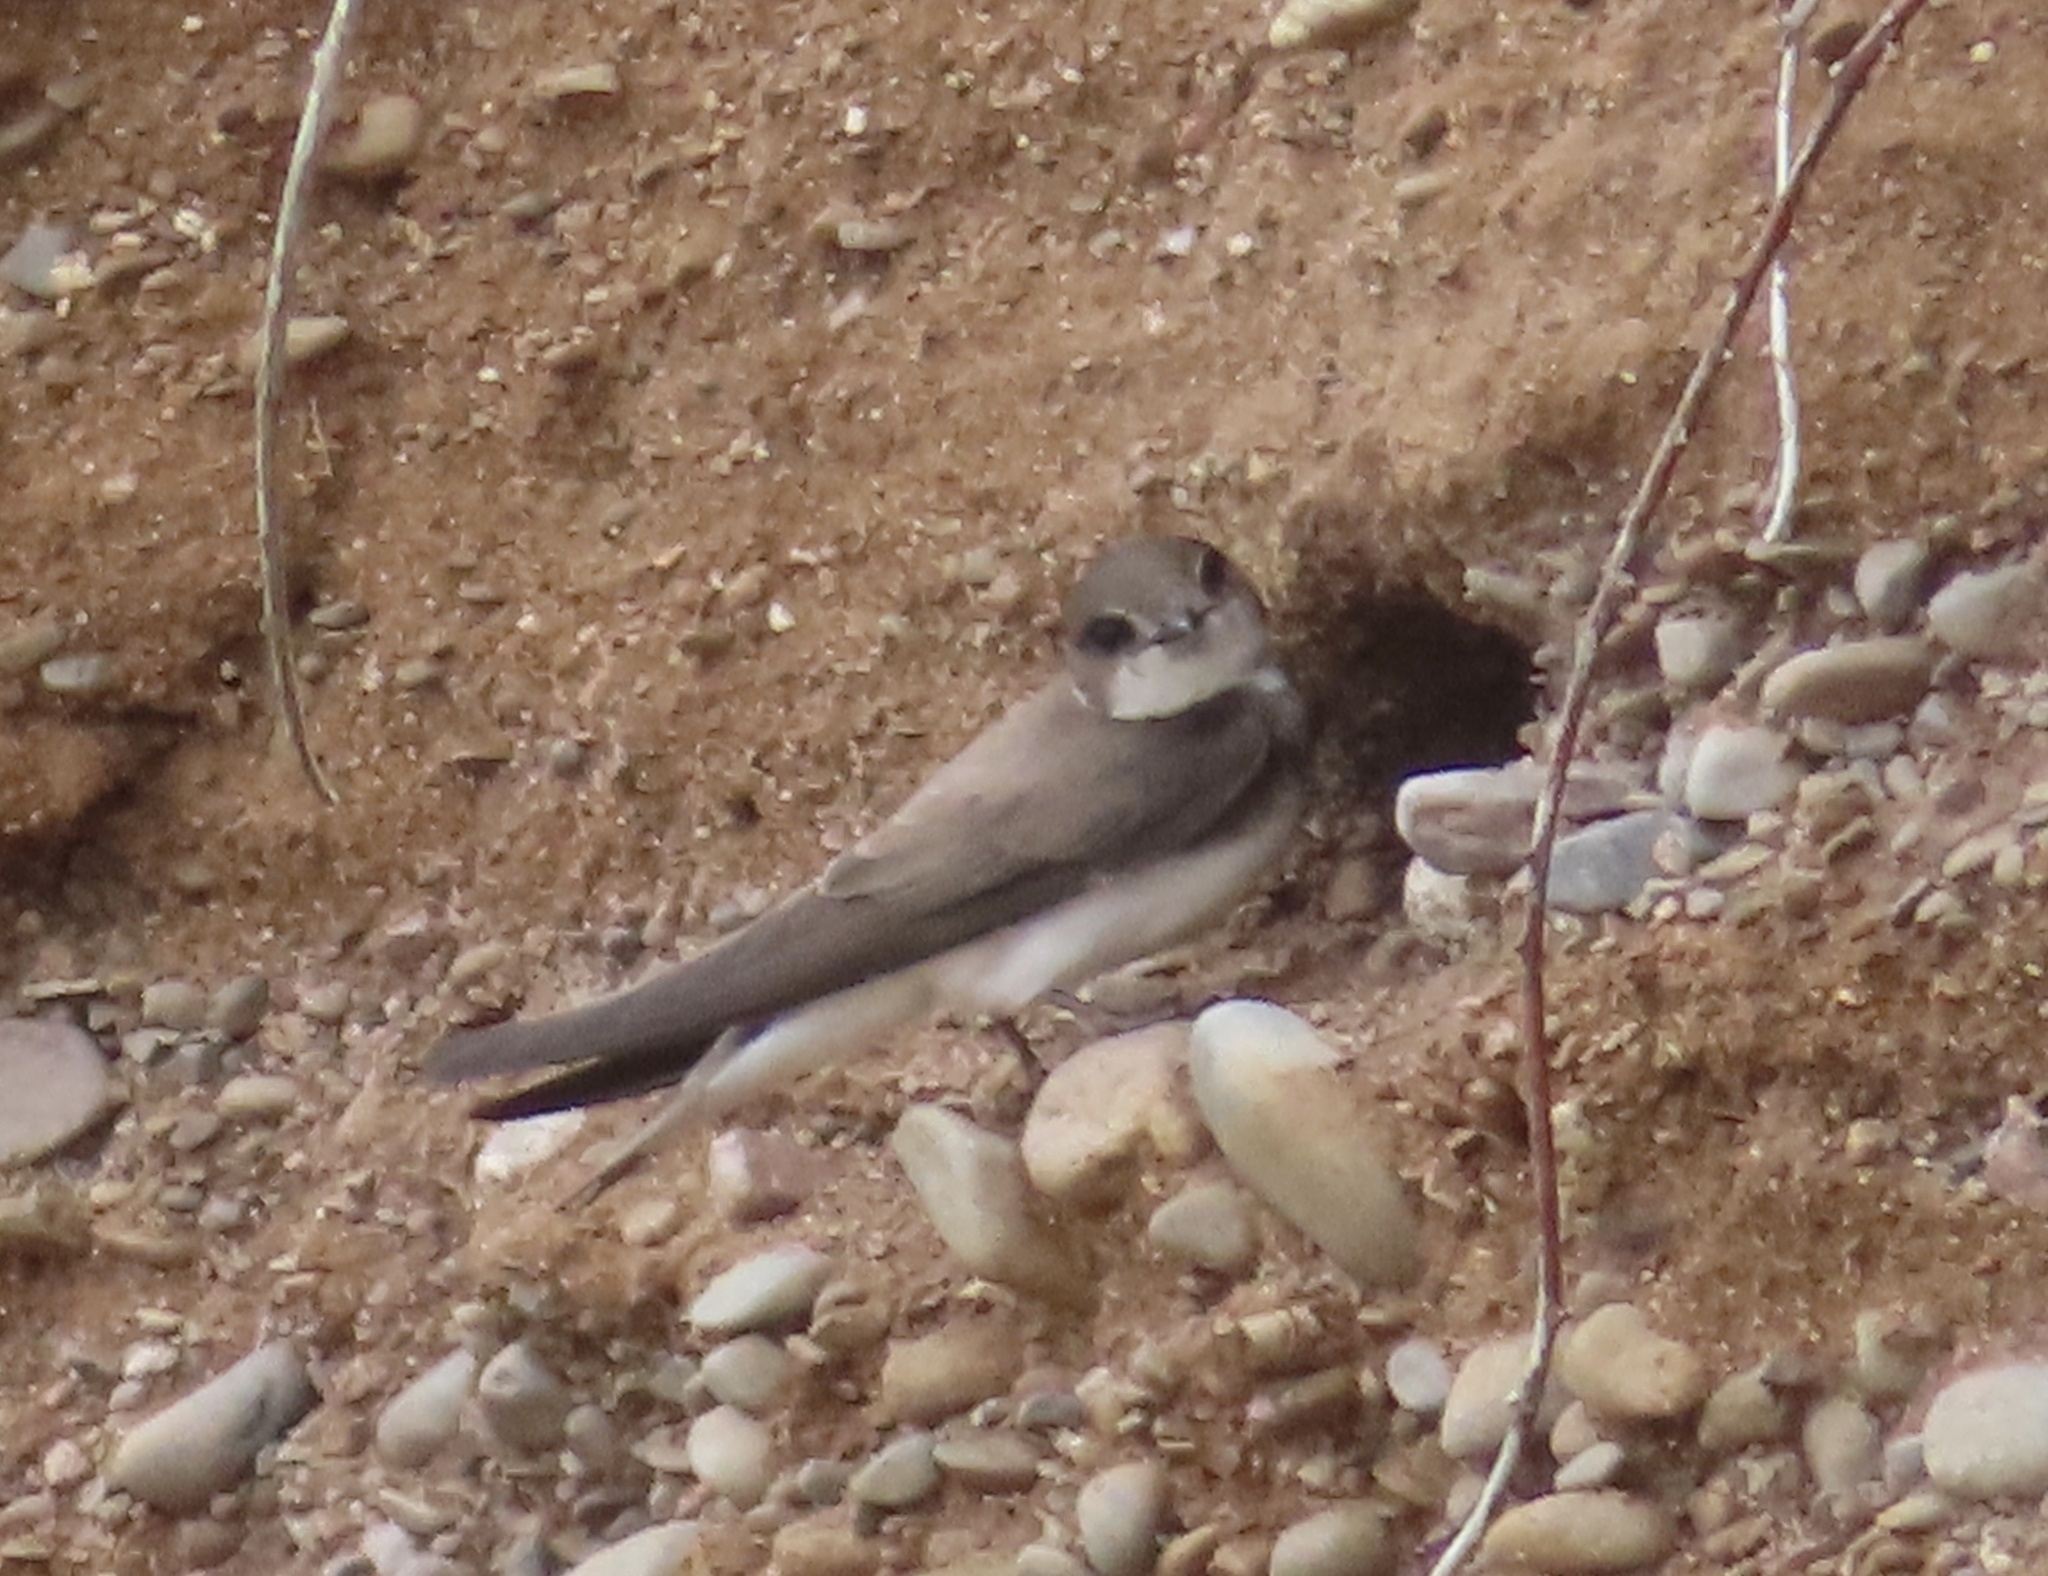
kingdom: Animalia
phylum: Chordata
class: Aves
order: Passeriformes
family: Hirundinidae
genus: Riparia
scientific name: Riparia riparia
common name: Sand martin
